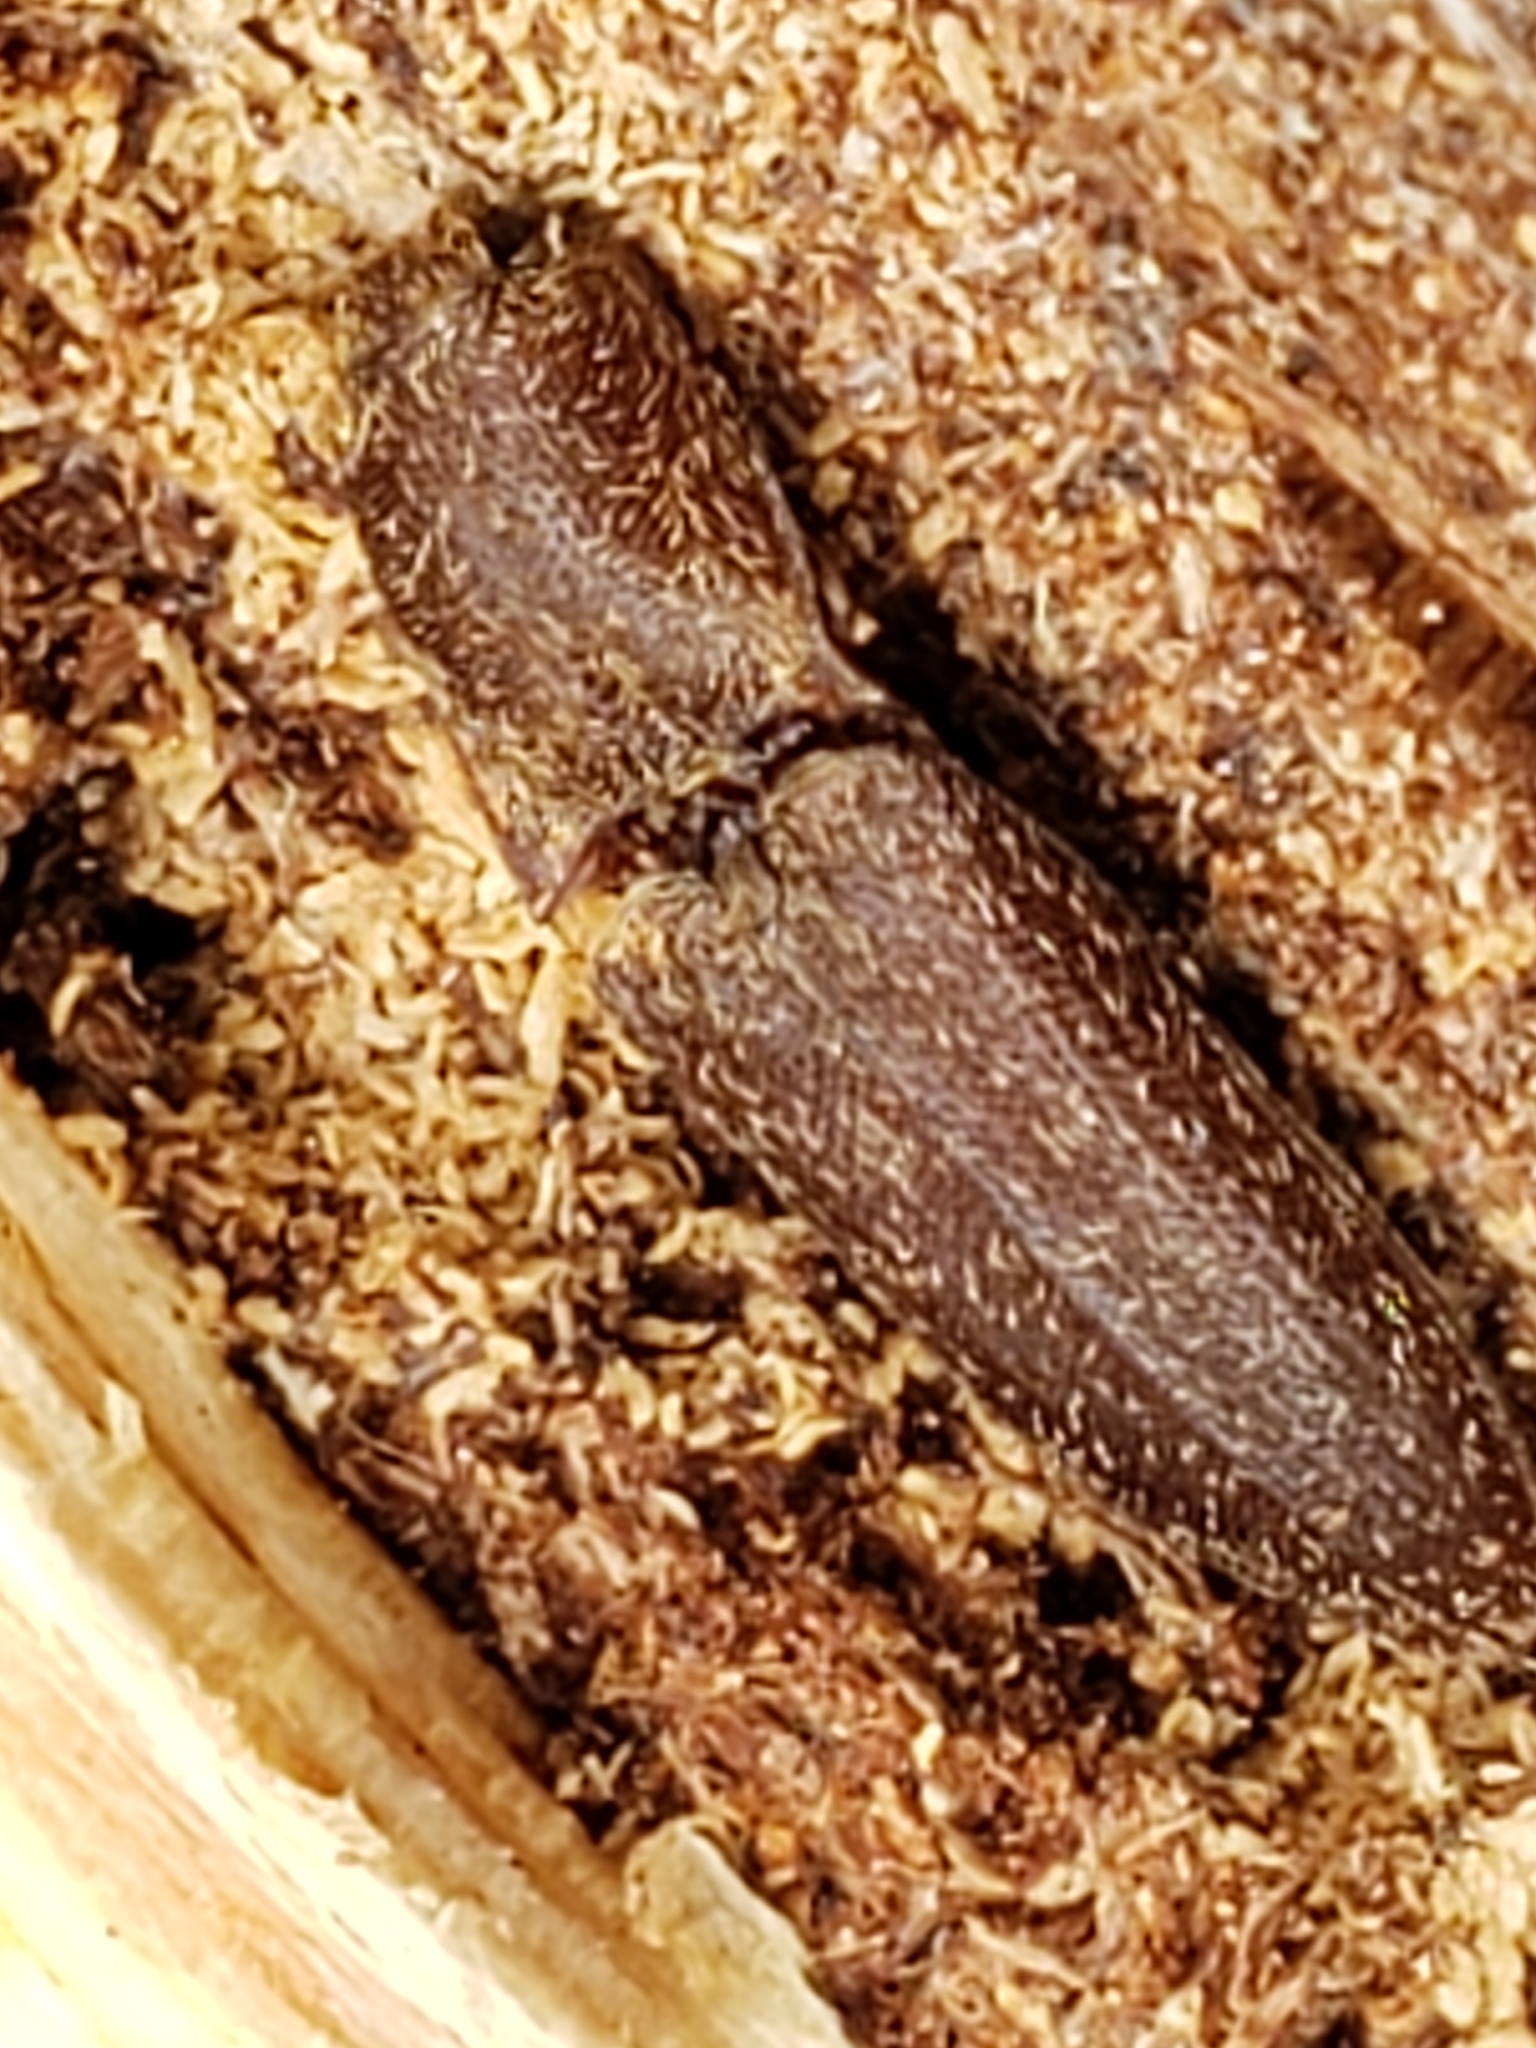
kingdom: Animalia
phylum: Arthropoda
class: Insecta
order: Coleoptera
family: Elateridae
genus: Lacon
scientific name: Lacon impressicollis
